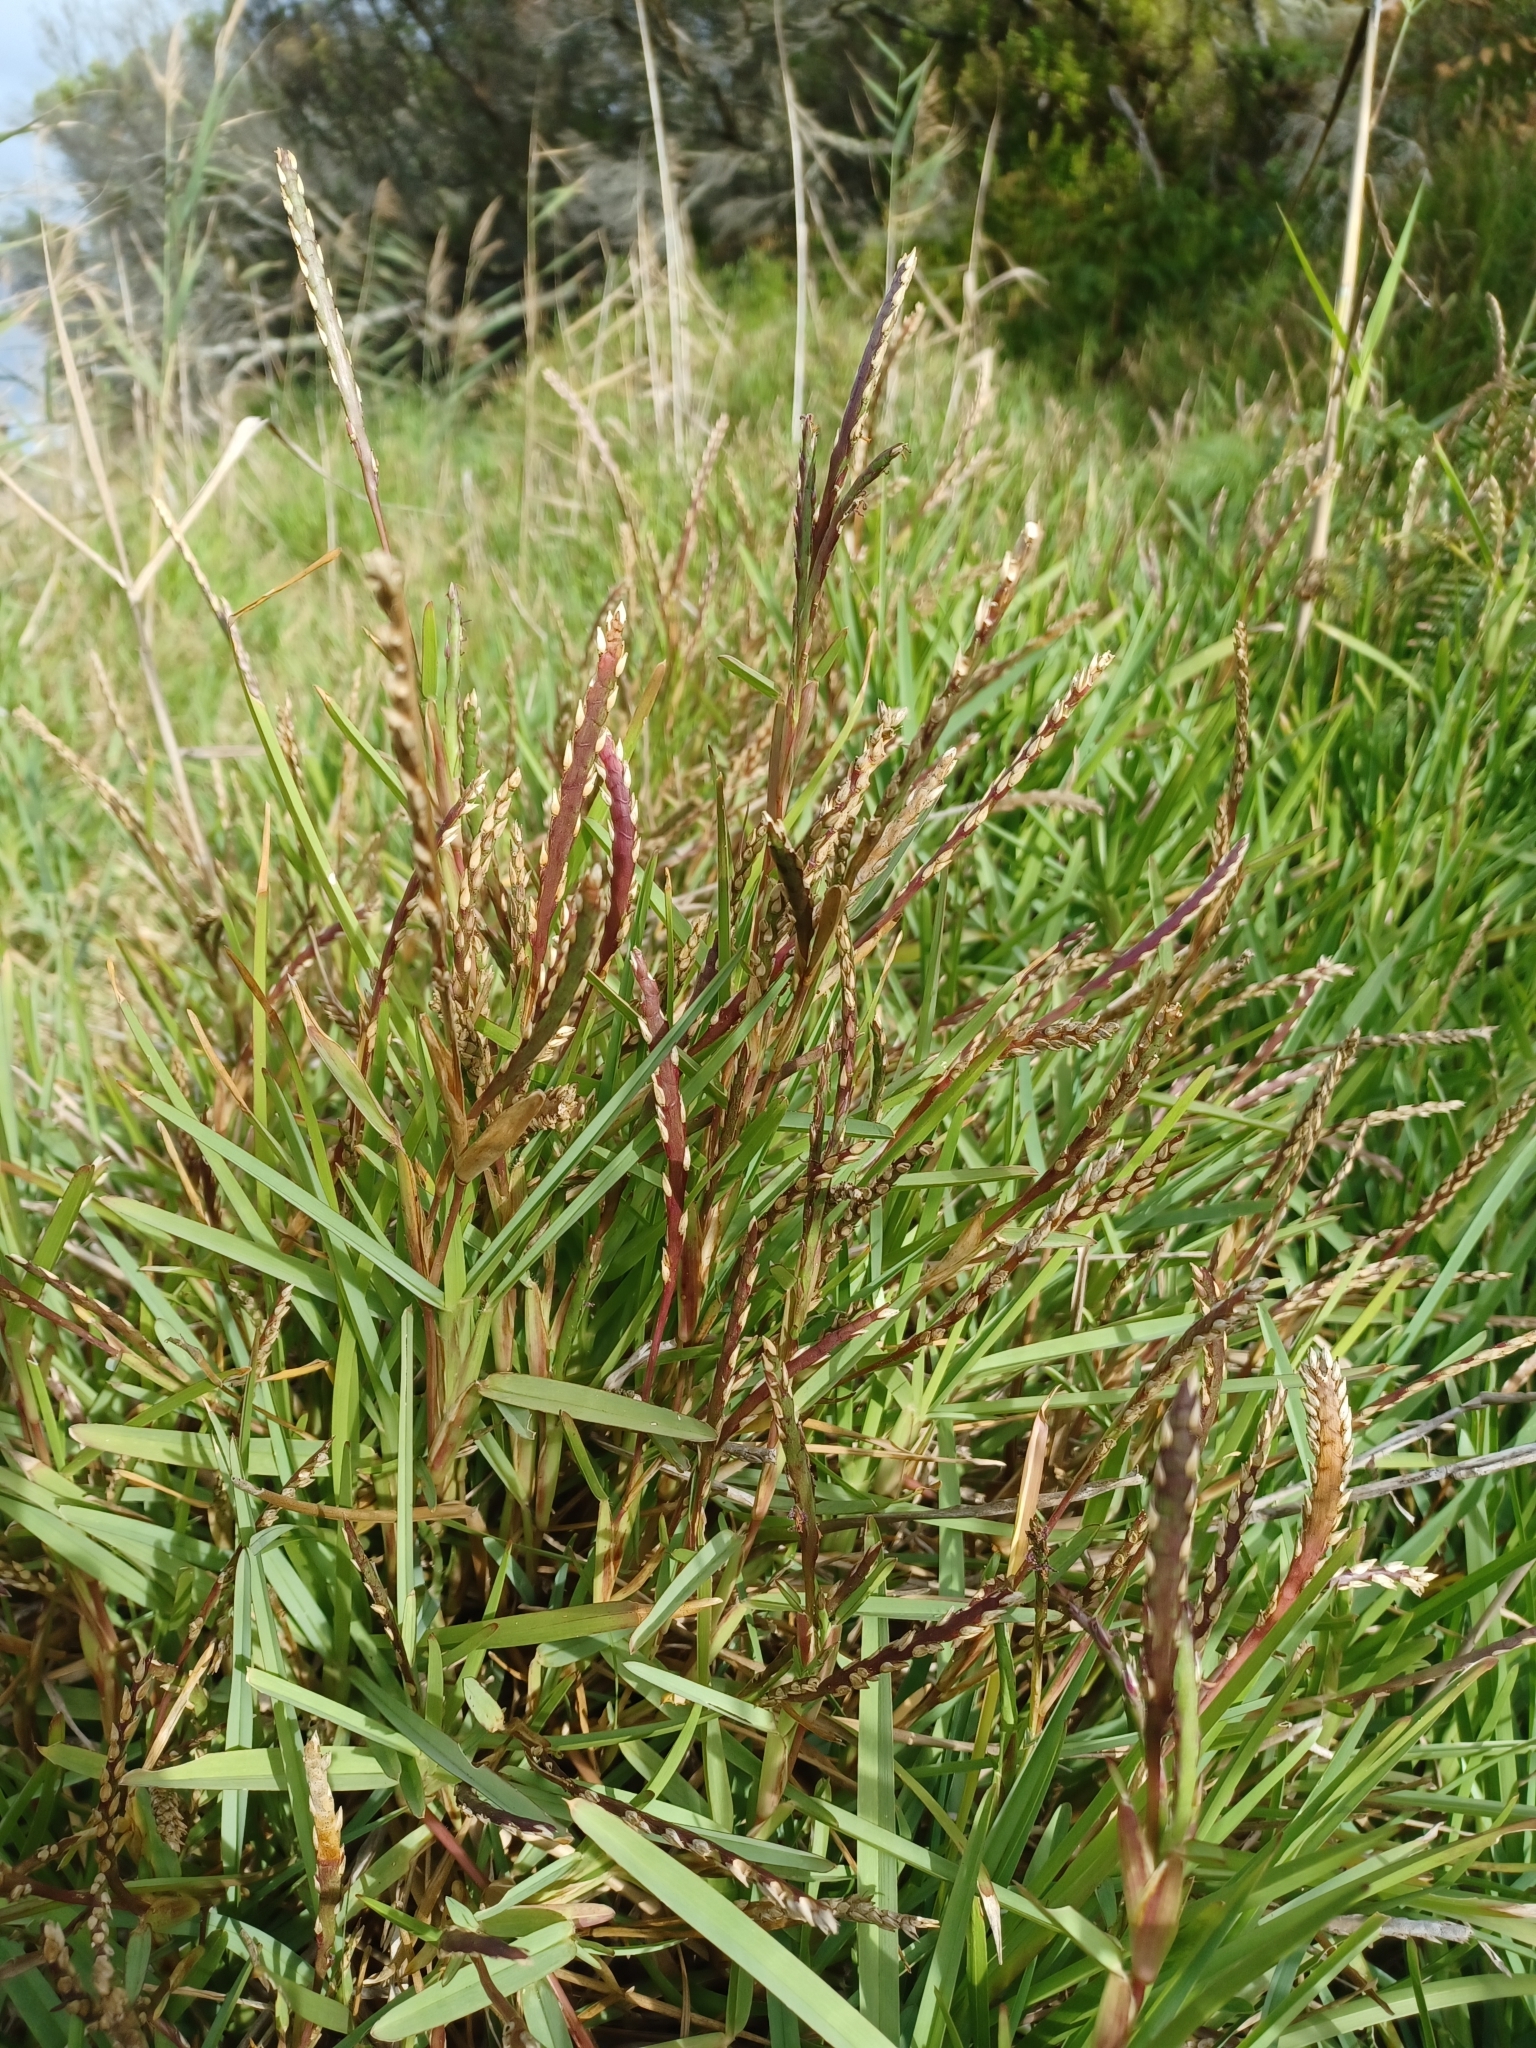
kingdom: Plantae
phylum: Tracheophyta
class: Liliopsida
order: Poales
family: Poaceae
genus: Stenotaphrum
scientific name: Stenotaphrum secundatum
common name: St. augustine grass
